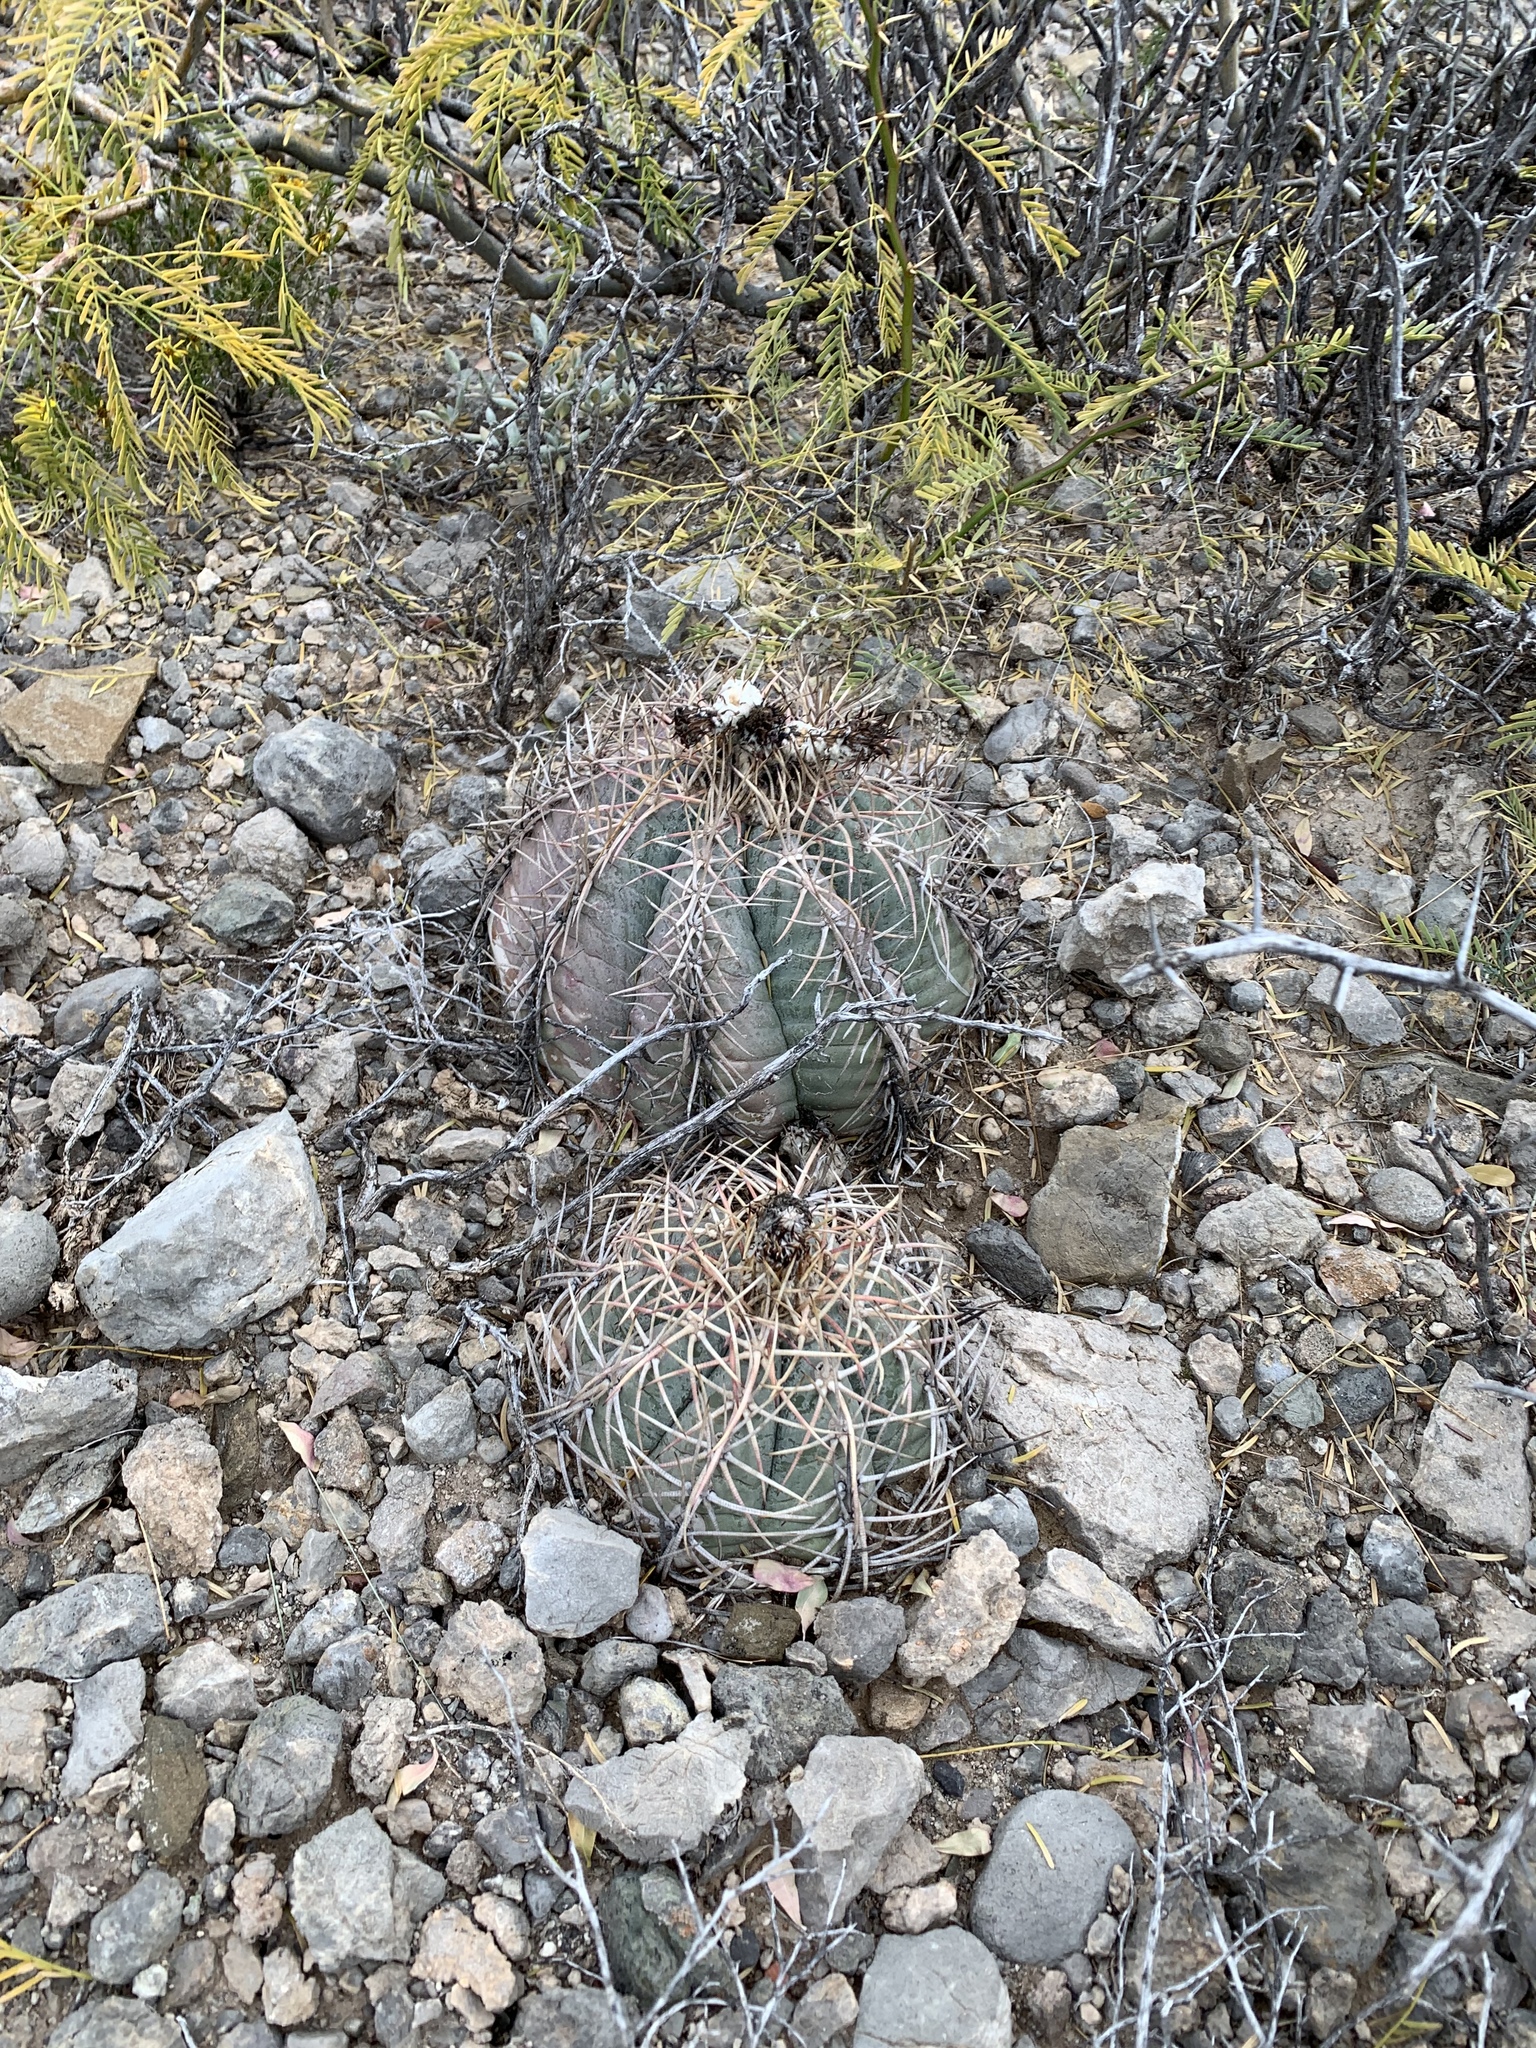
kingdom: Plantae
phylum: Tracheophyta
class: Magnoliopsida
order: Caryophyllales
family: Cactaceae
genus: Echinocactus
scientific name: Echinocactus horizonthalonius
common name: Devilshead
